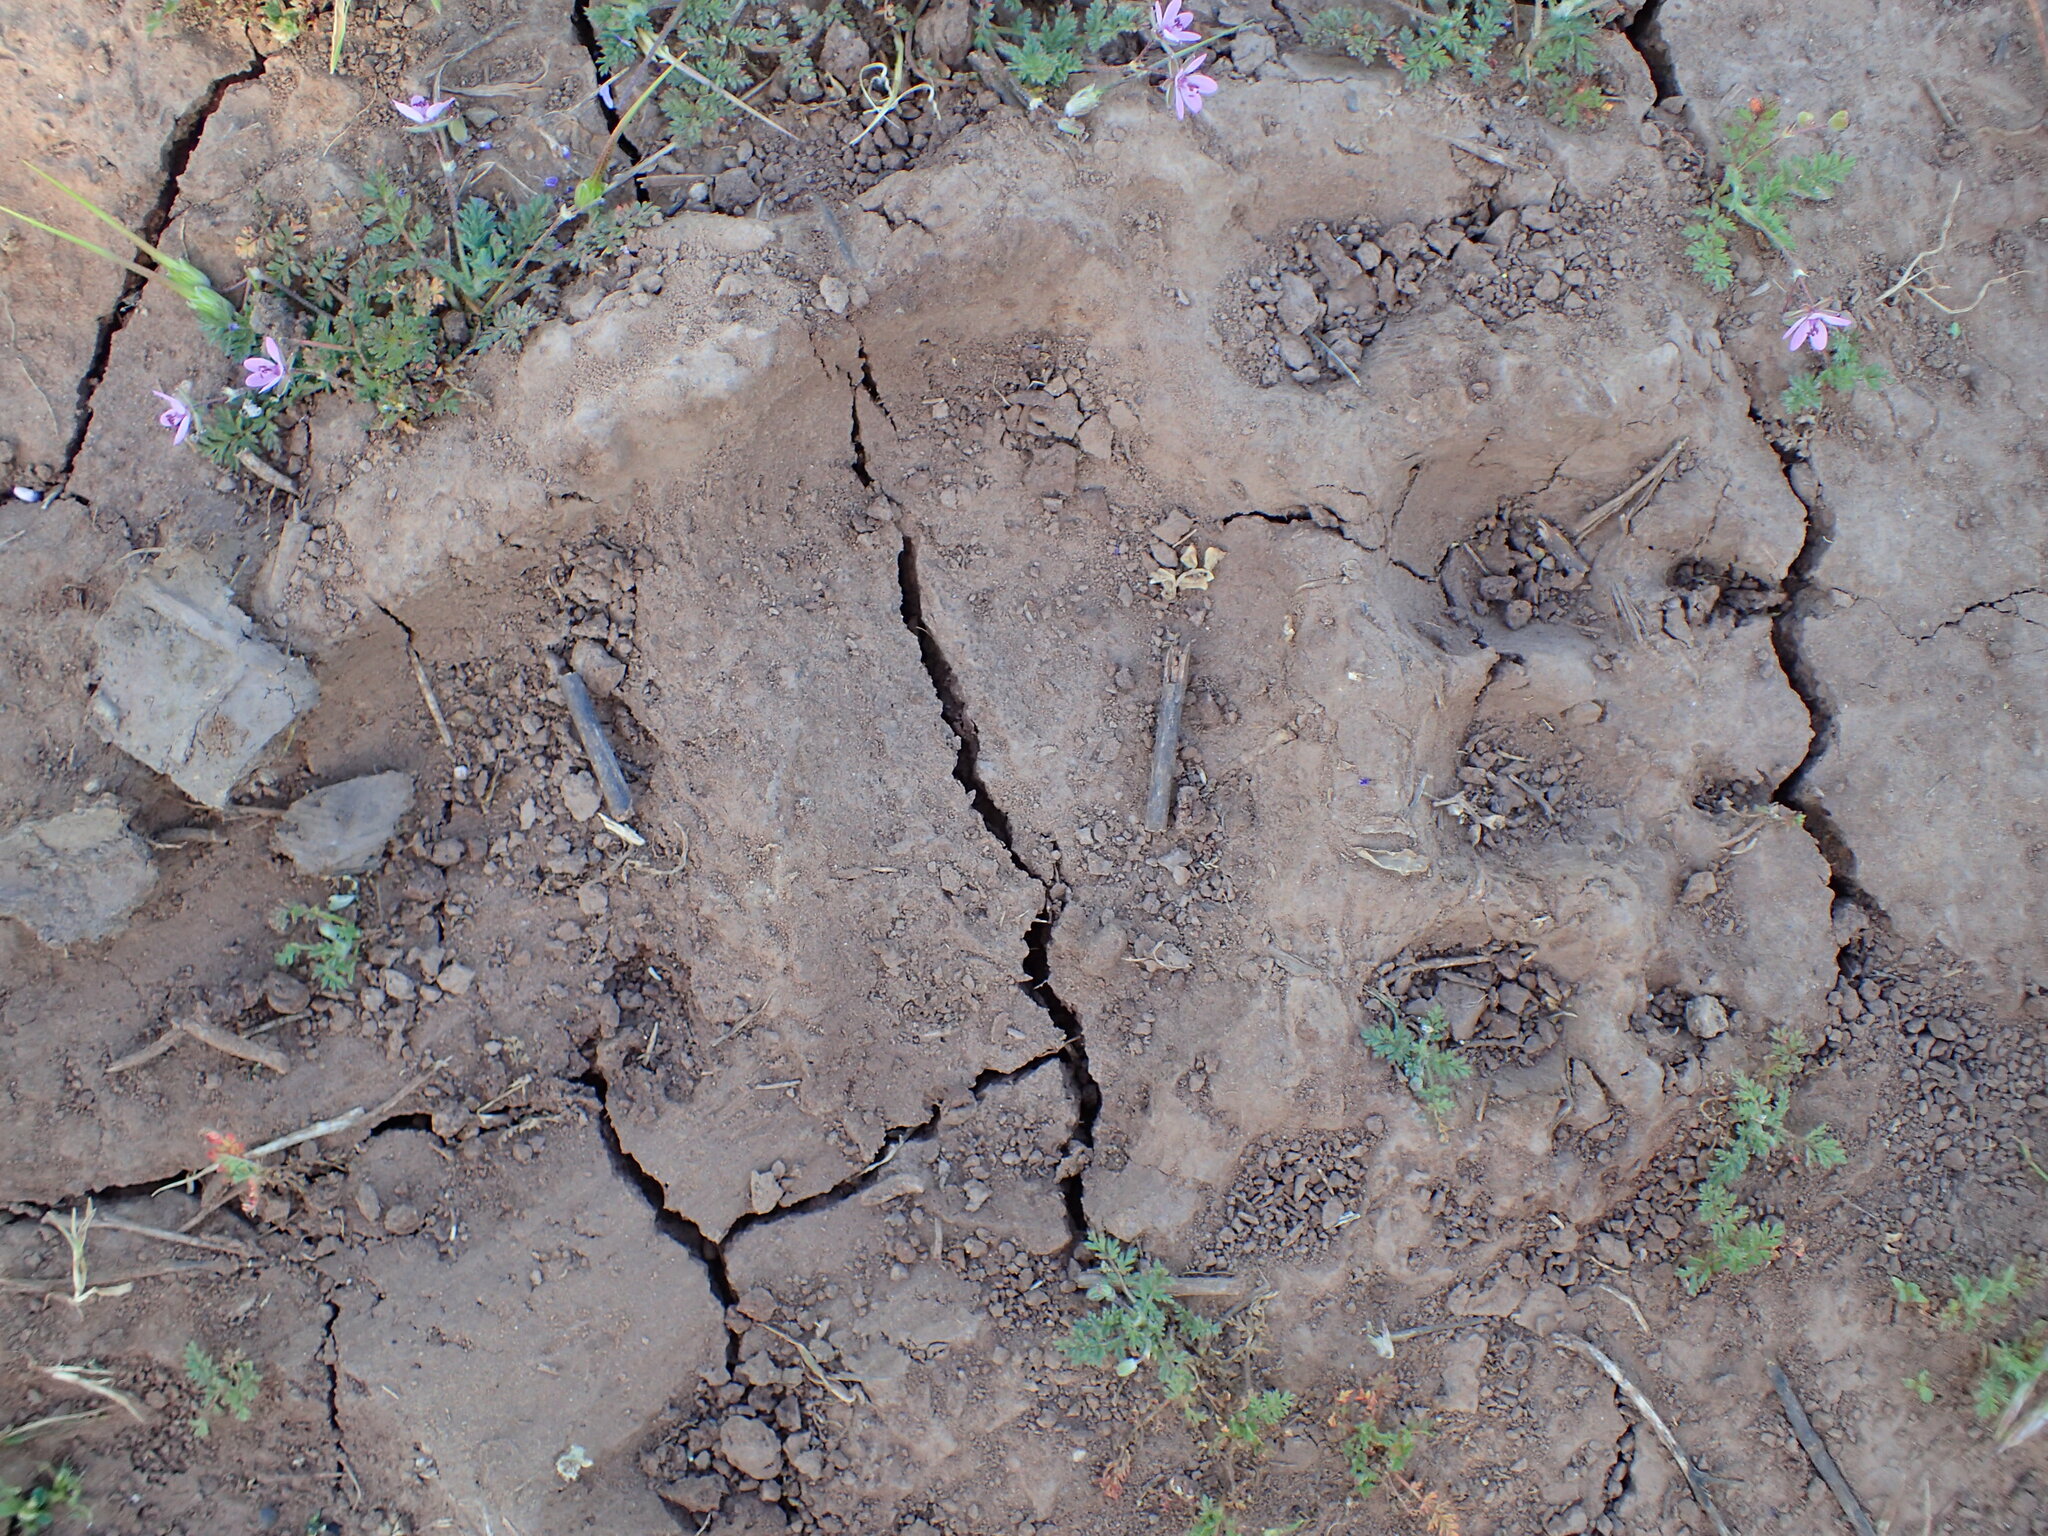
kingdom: Animalia
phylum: Chordata
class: Mammalia
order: Carnivora
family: Ursidae
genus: Ursus
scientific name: Ursus americanus
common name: American black bear
